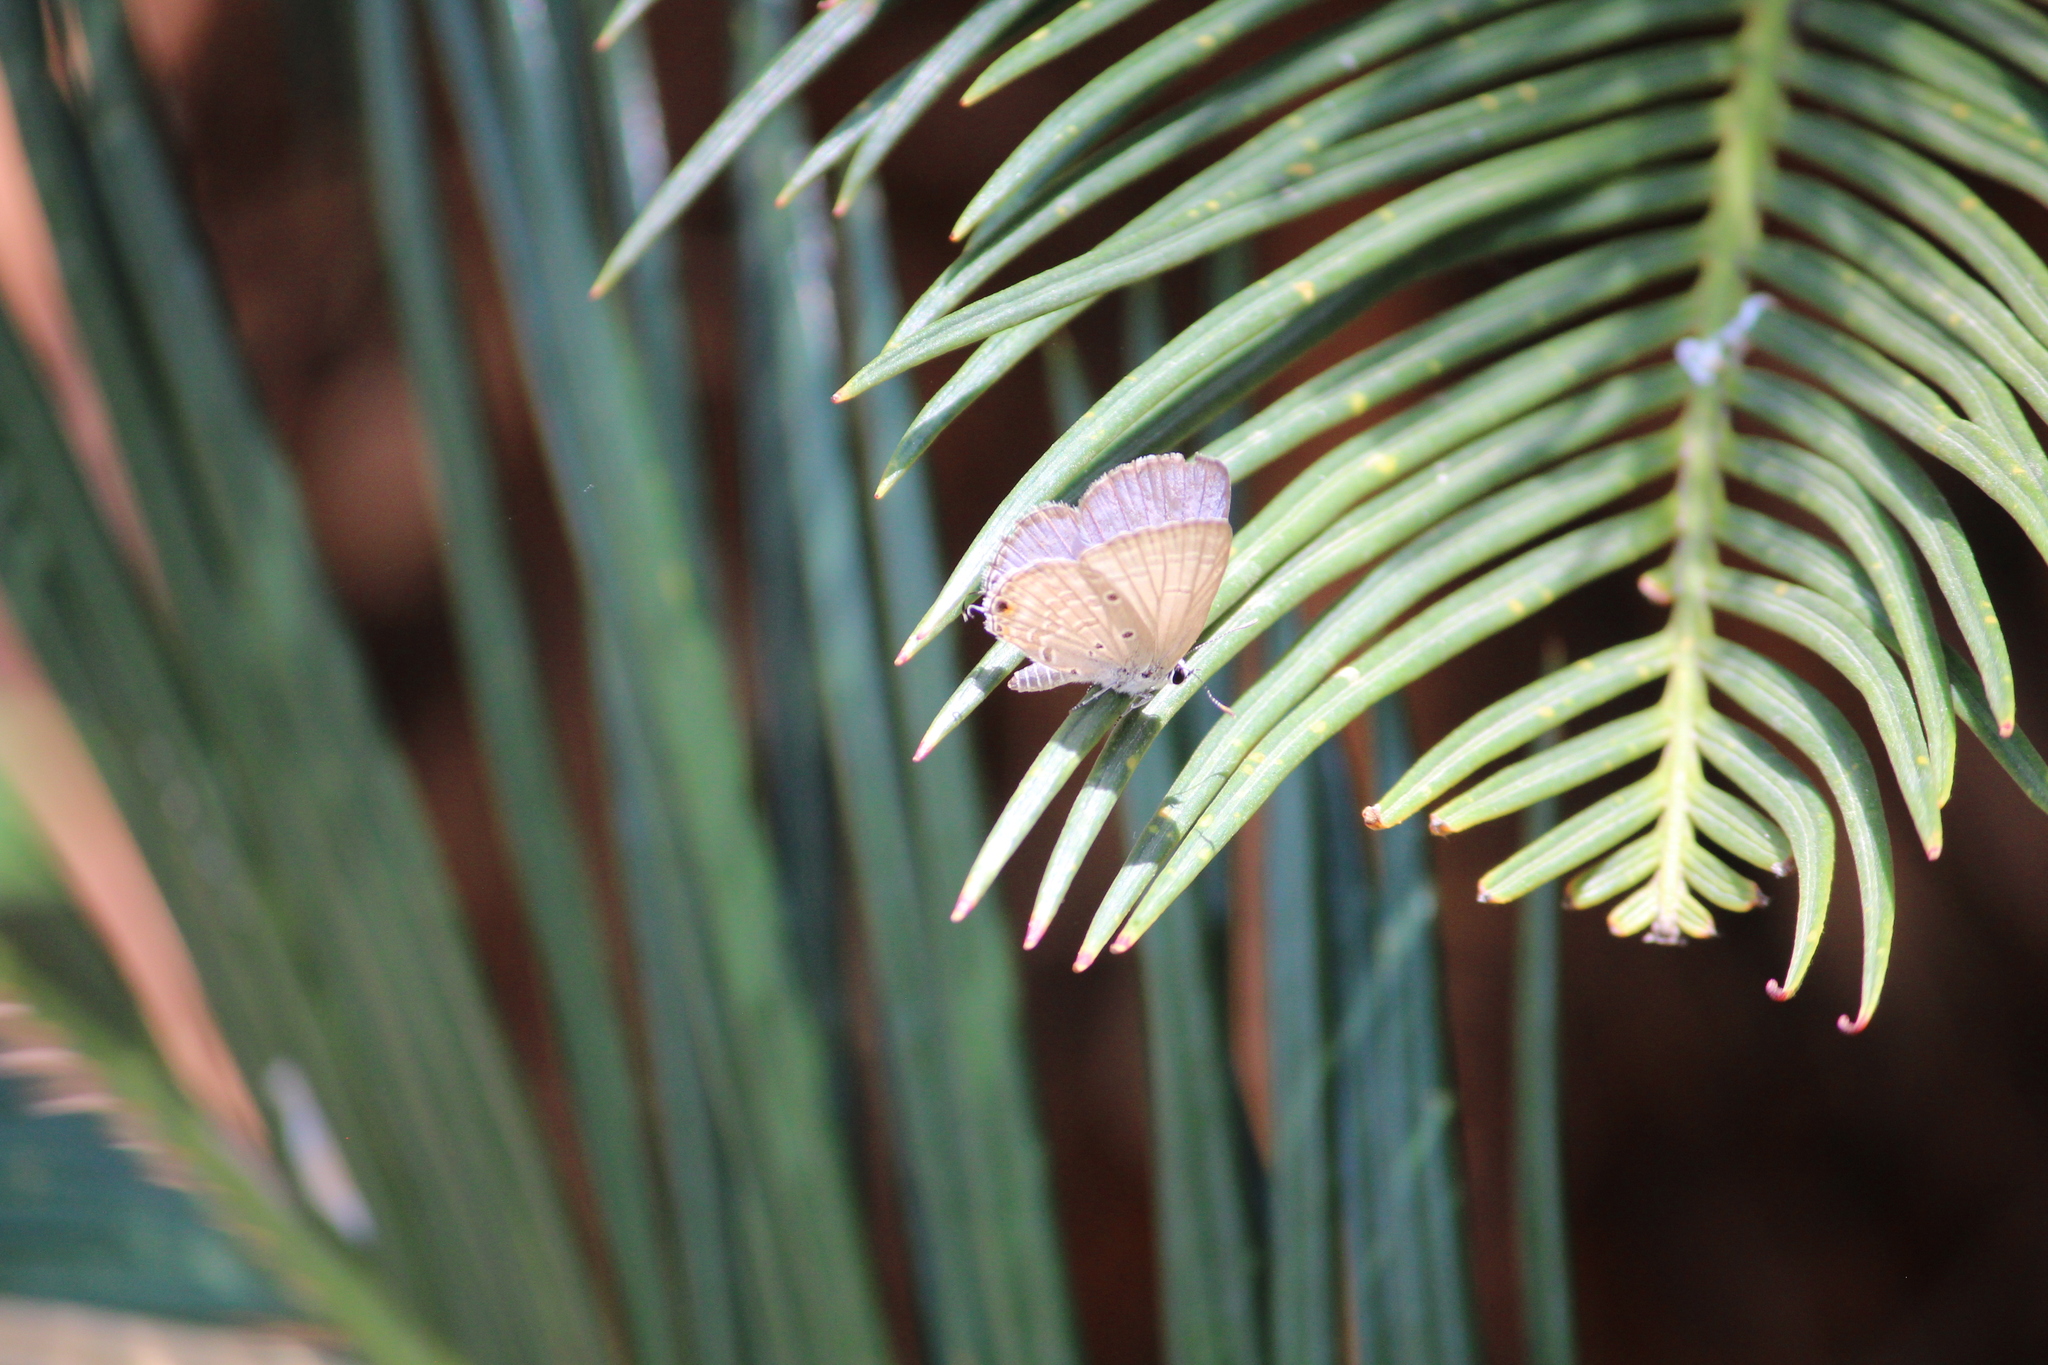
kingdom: Animalia
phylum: Arthropoda
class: Insecta
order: Lepidoptera
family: Lycaenidae
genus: Luthrodes
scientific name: Luthrodes pandava
